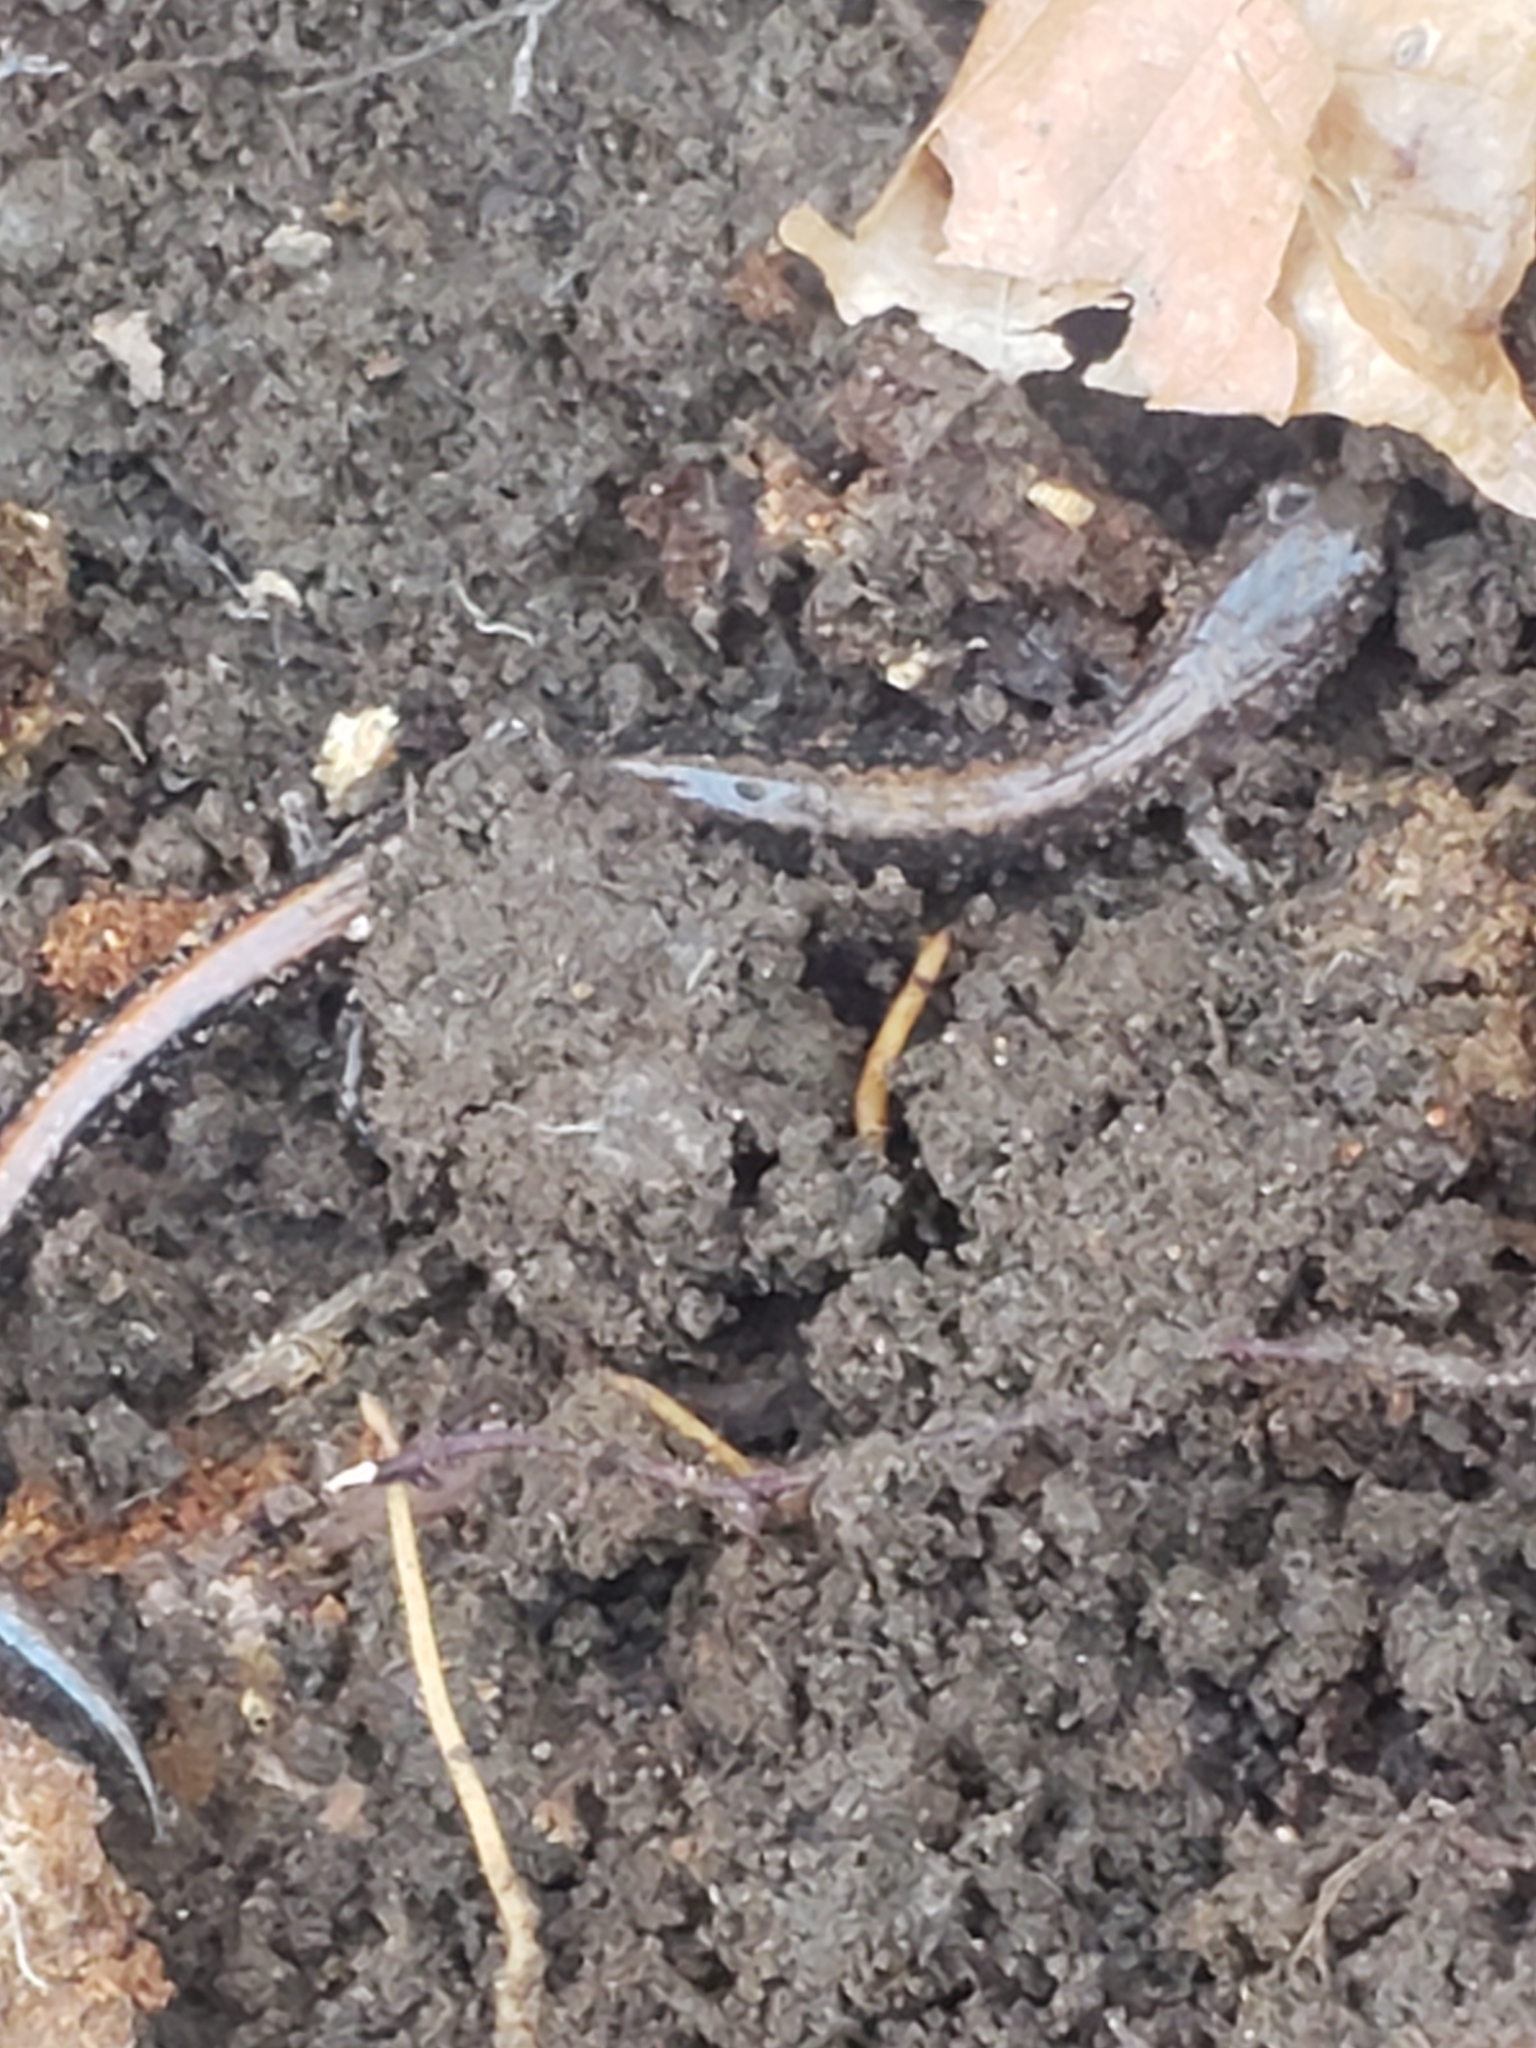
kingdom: Animalia
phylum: Chordata
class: Amphibia
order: Caudata
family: Plethodontidae
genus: Plethodon
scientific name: Plethodon cinereus
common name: Redback salamander
